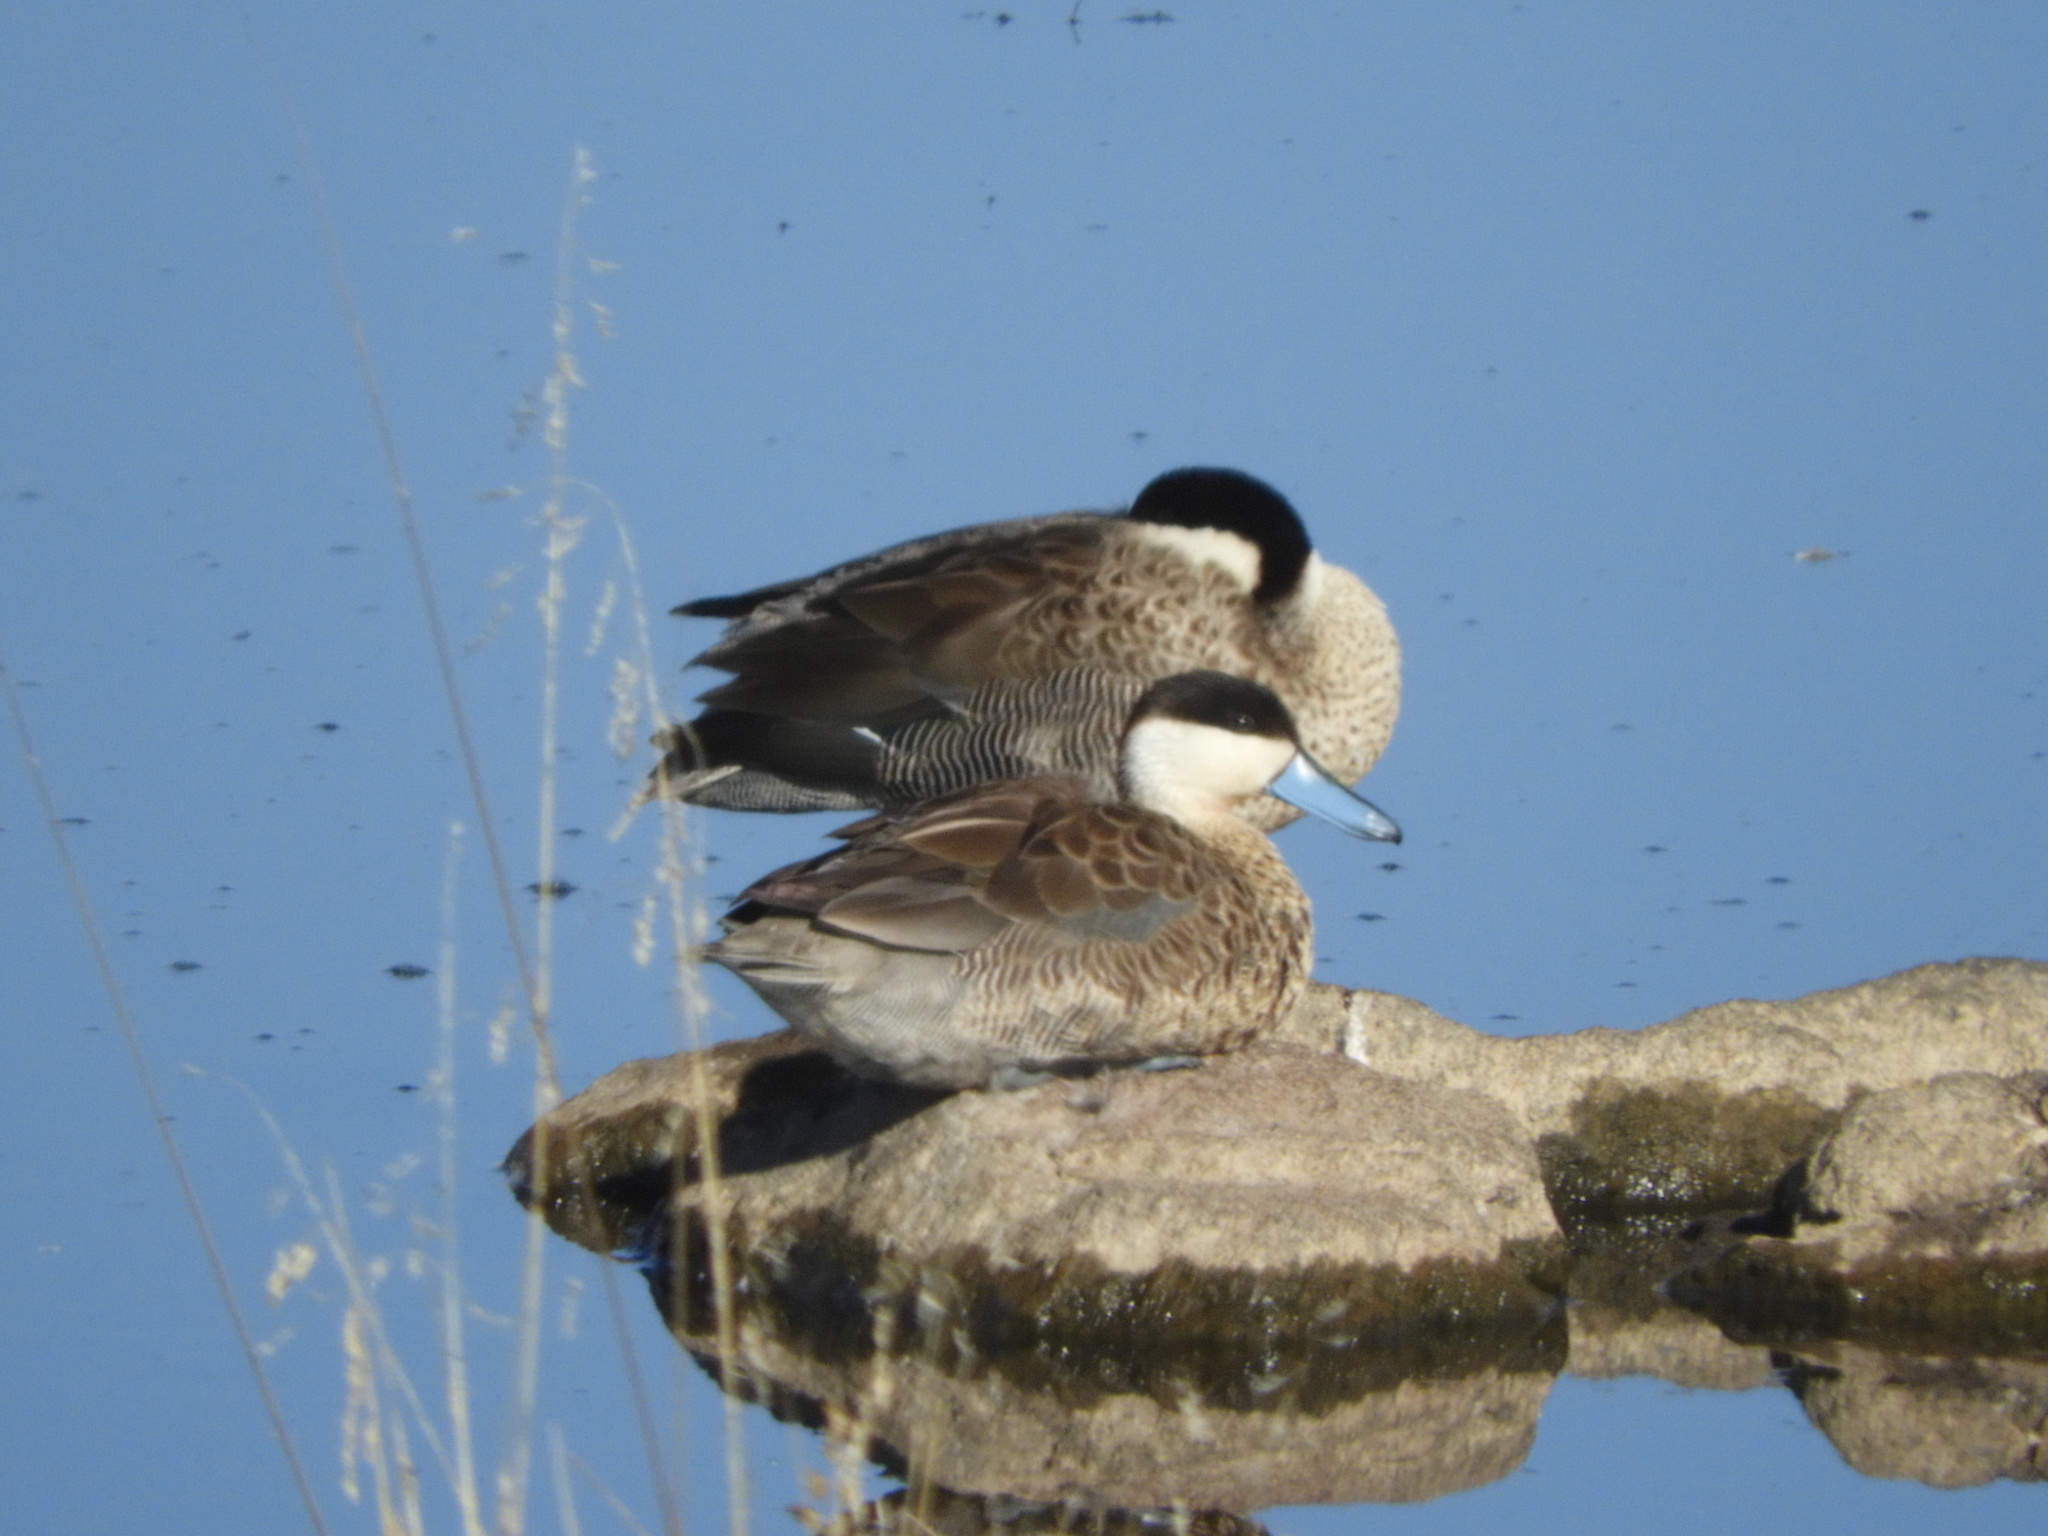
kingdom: Animalia
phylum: Chordata
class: Aves
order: Anseriformes
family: Anatidae
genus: Spatula
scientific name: Spatula puna
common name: Puna teal
